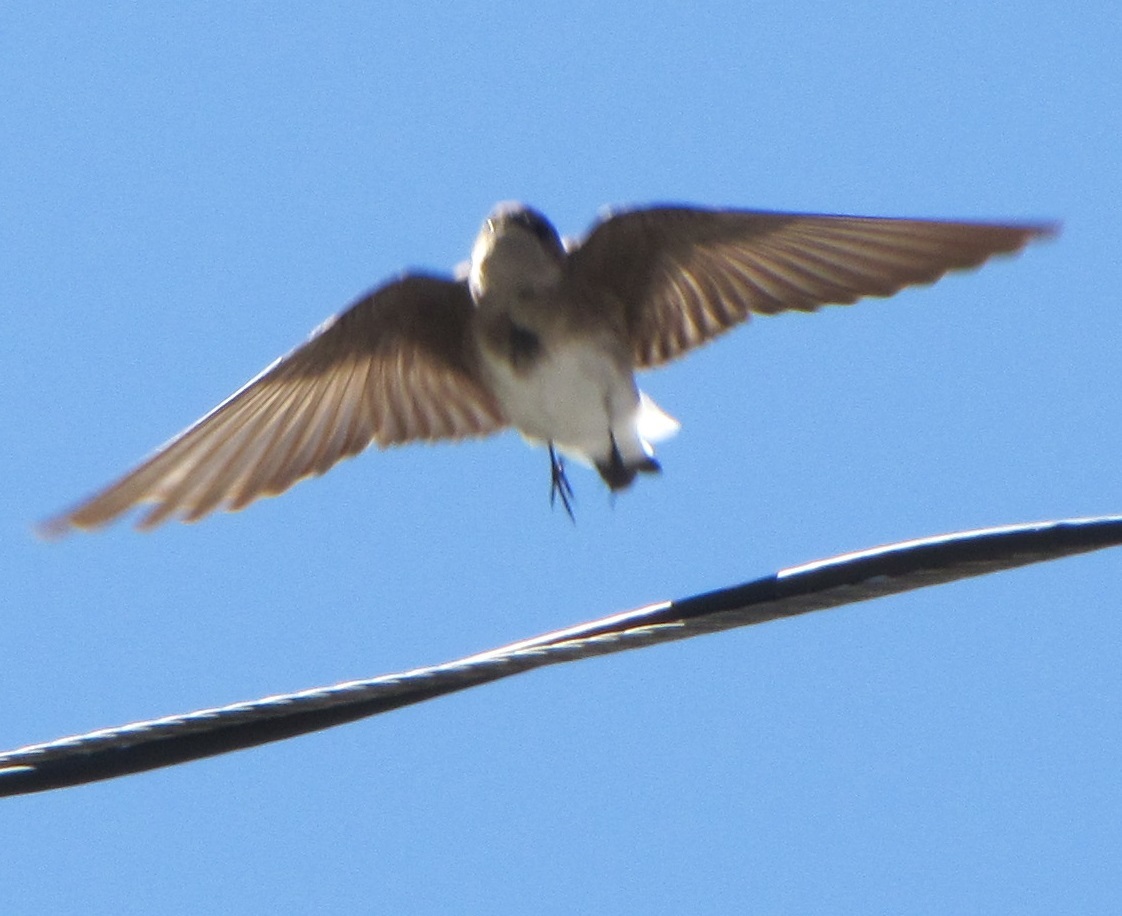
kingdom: Animalia
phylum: Chordata
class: Aves
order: Passeriformes
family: Hirundinidae
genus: Stelgidopteryx
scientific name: Stelgidopteryx serripennis
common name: Northern rough-winged swallow
